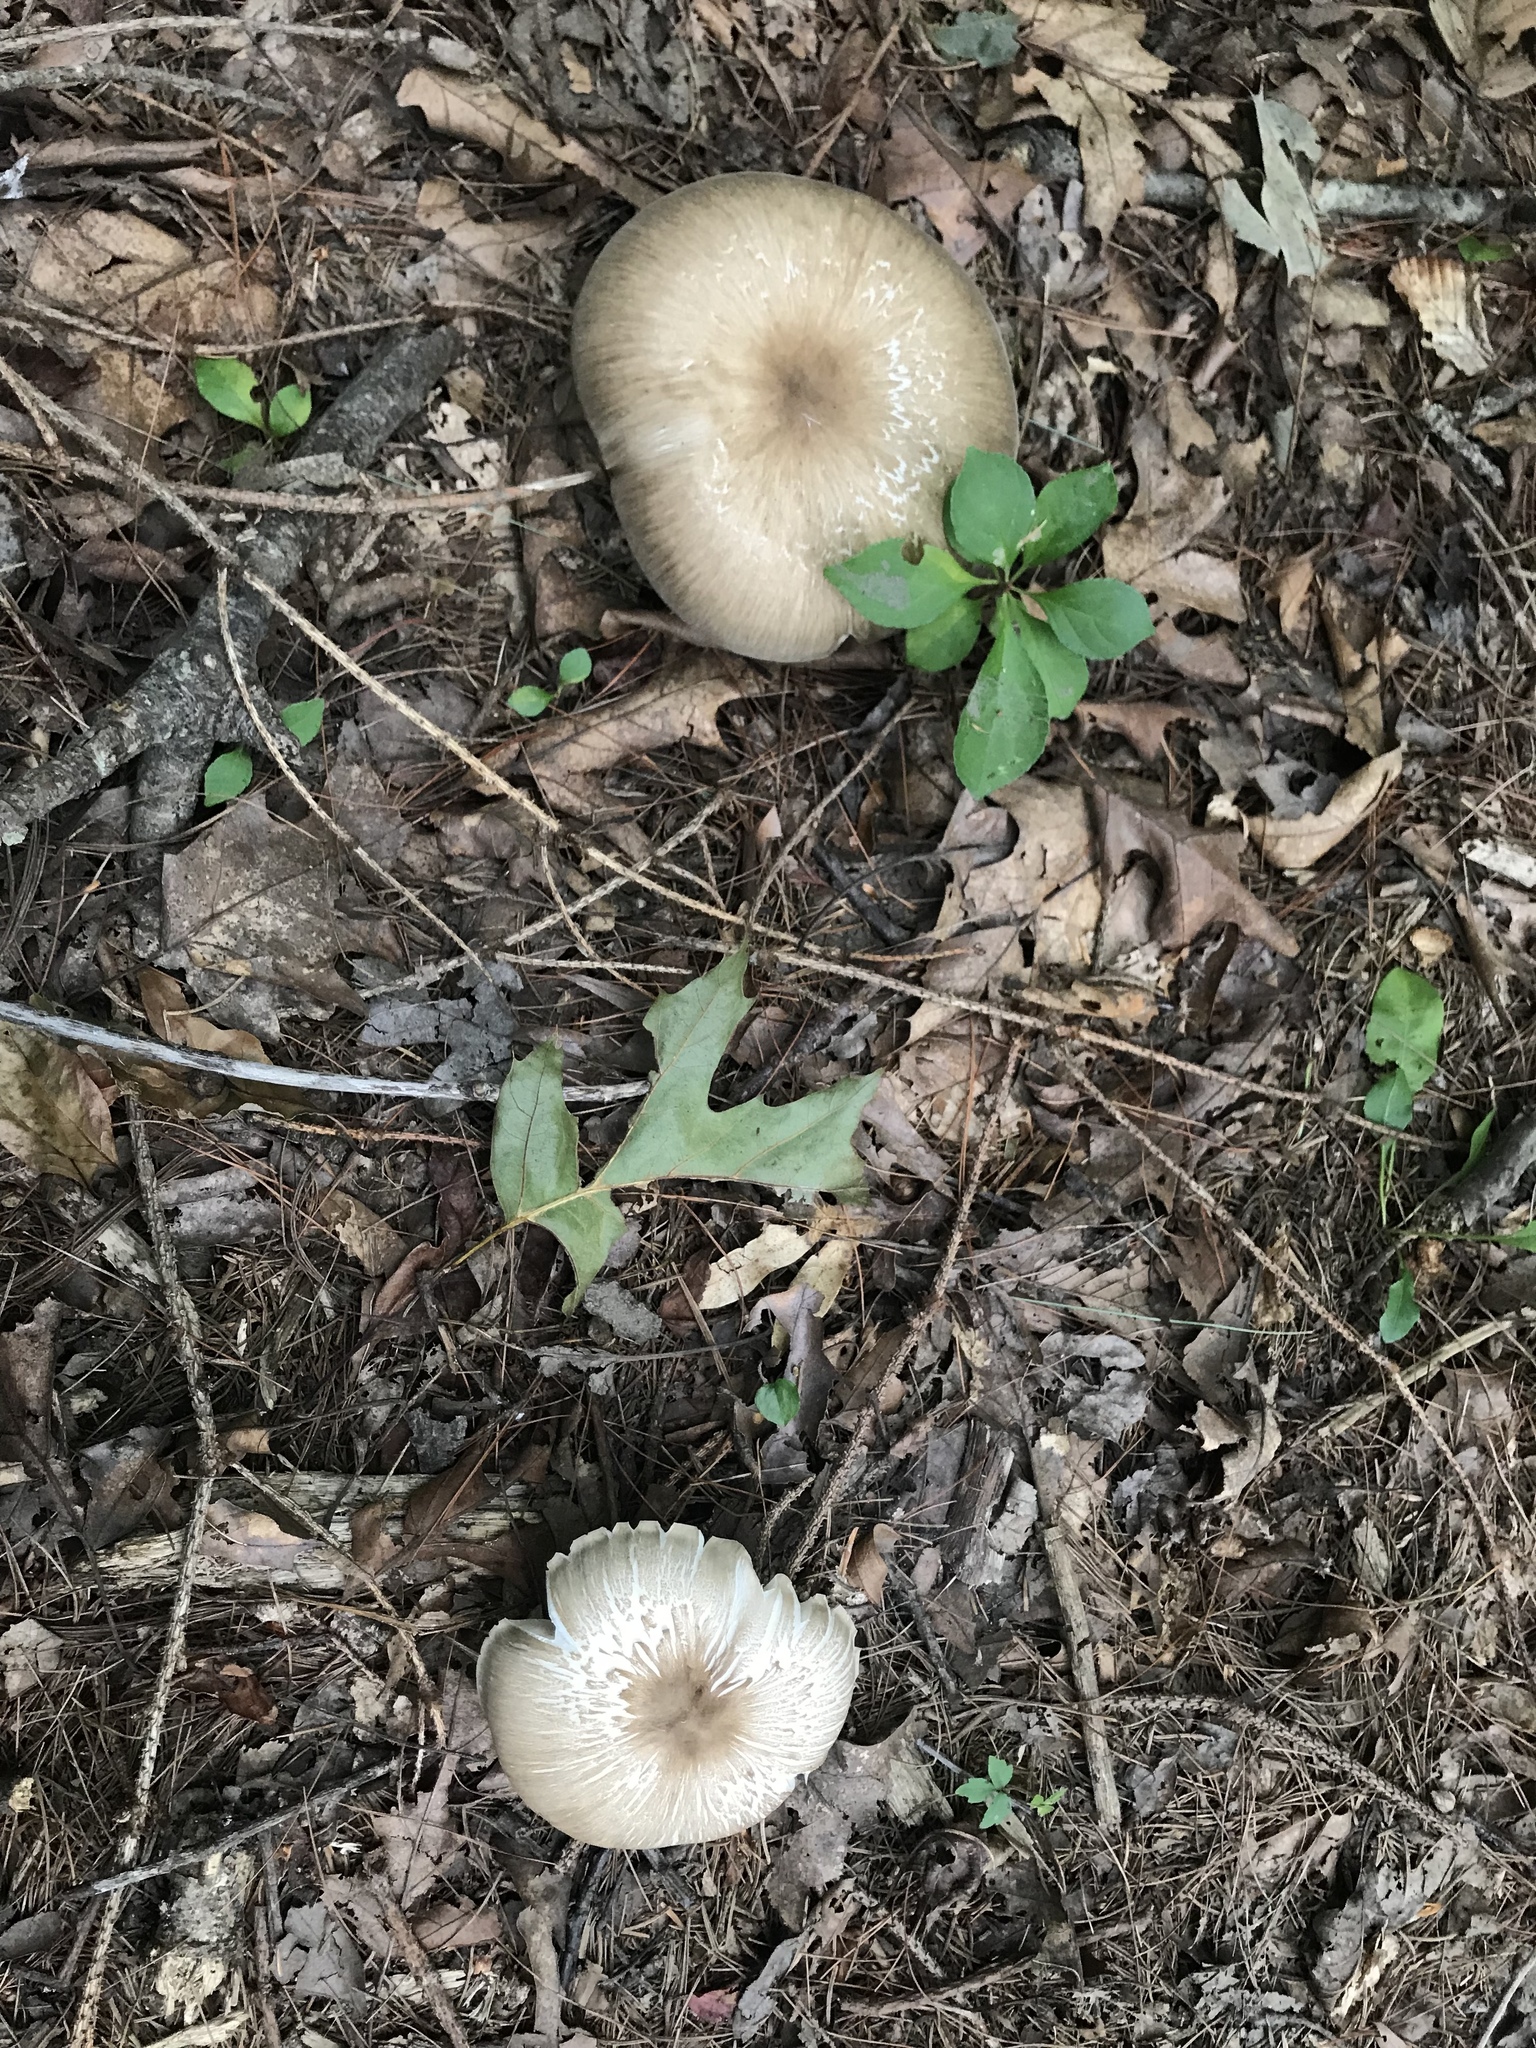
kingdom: Fungi
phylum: Basidiomycota
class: Agaricomycetes
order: Agaricales
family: Tricholomataceae
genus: Megacollybia
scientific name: Megacollybia rodmanii
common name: Eastern american platterful mushroom
